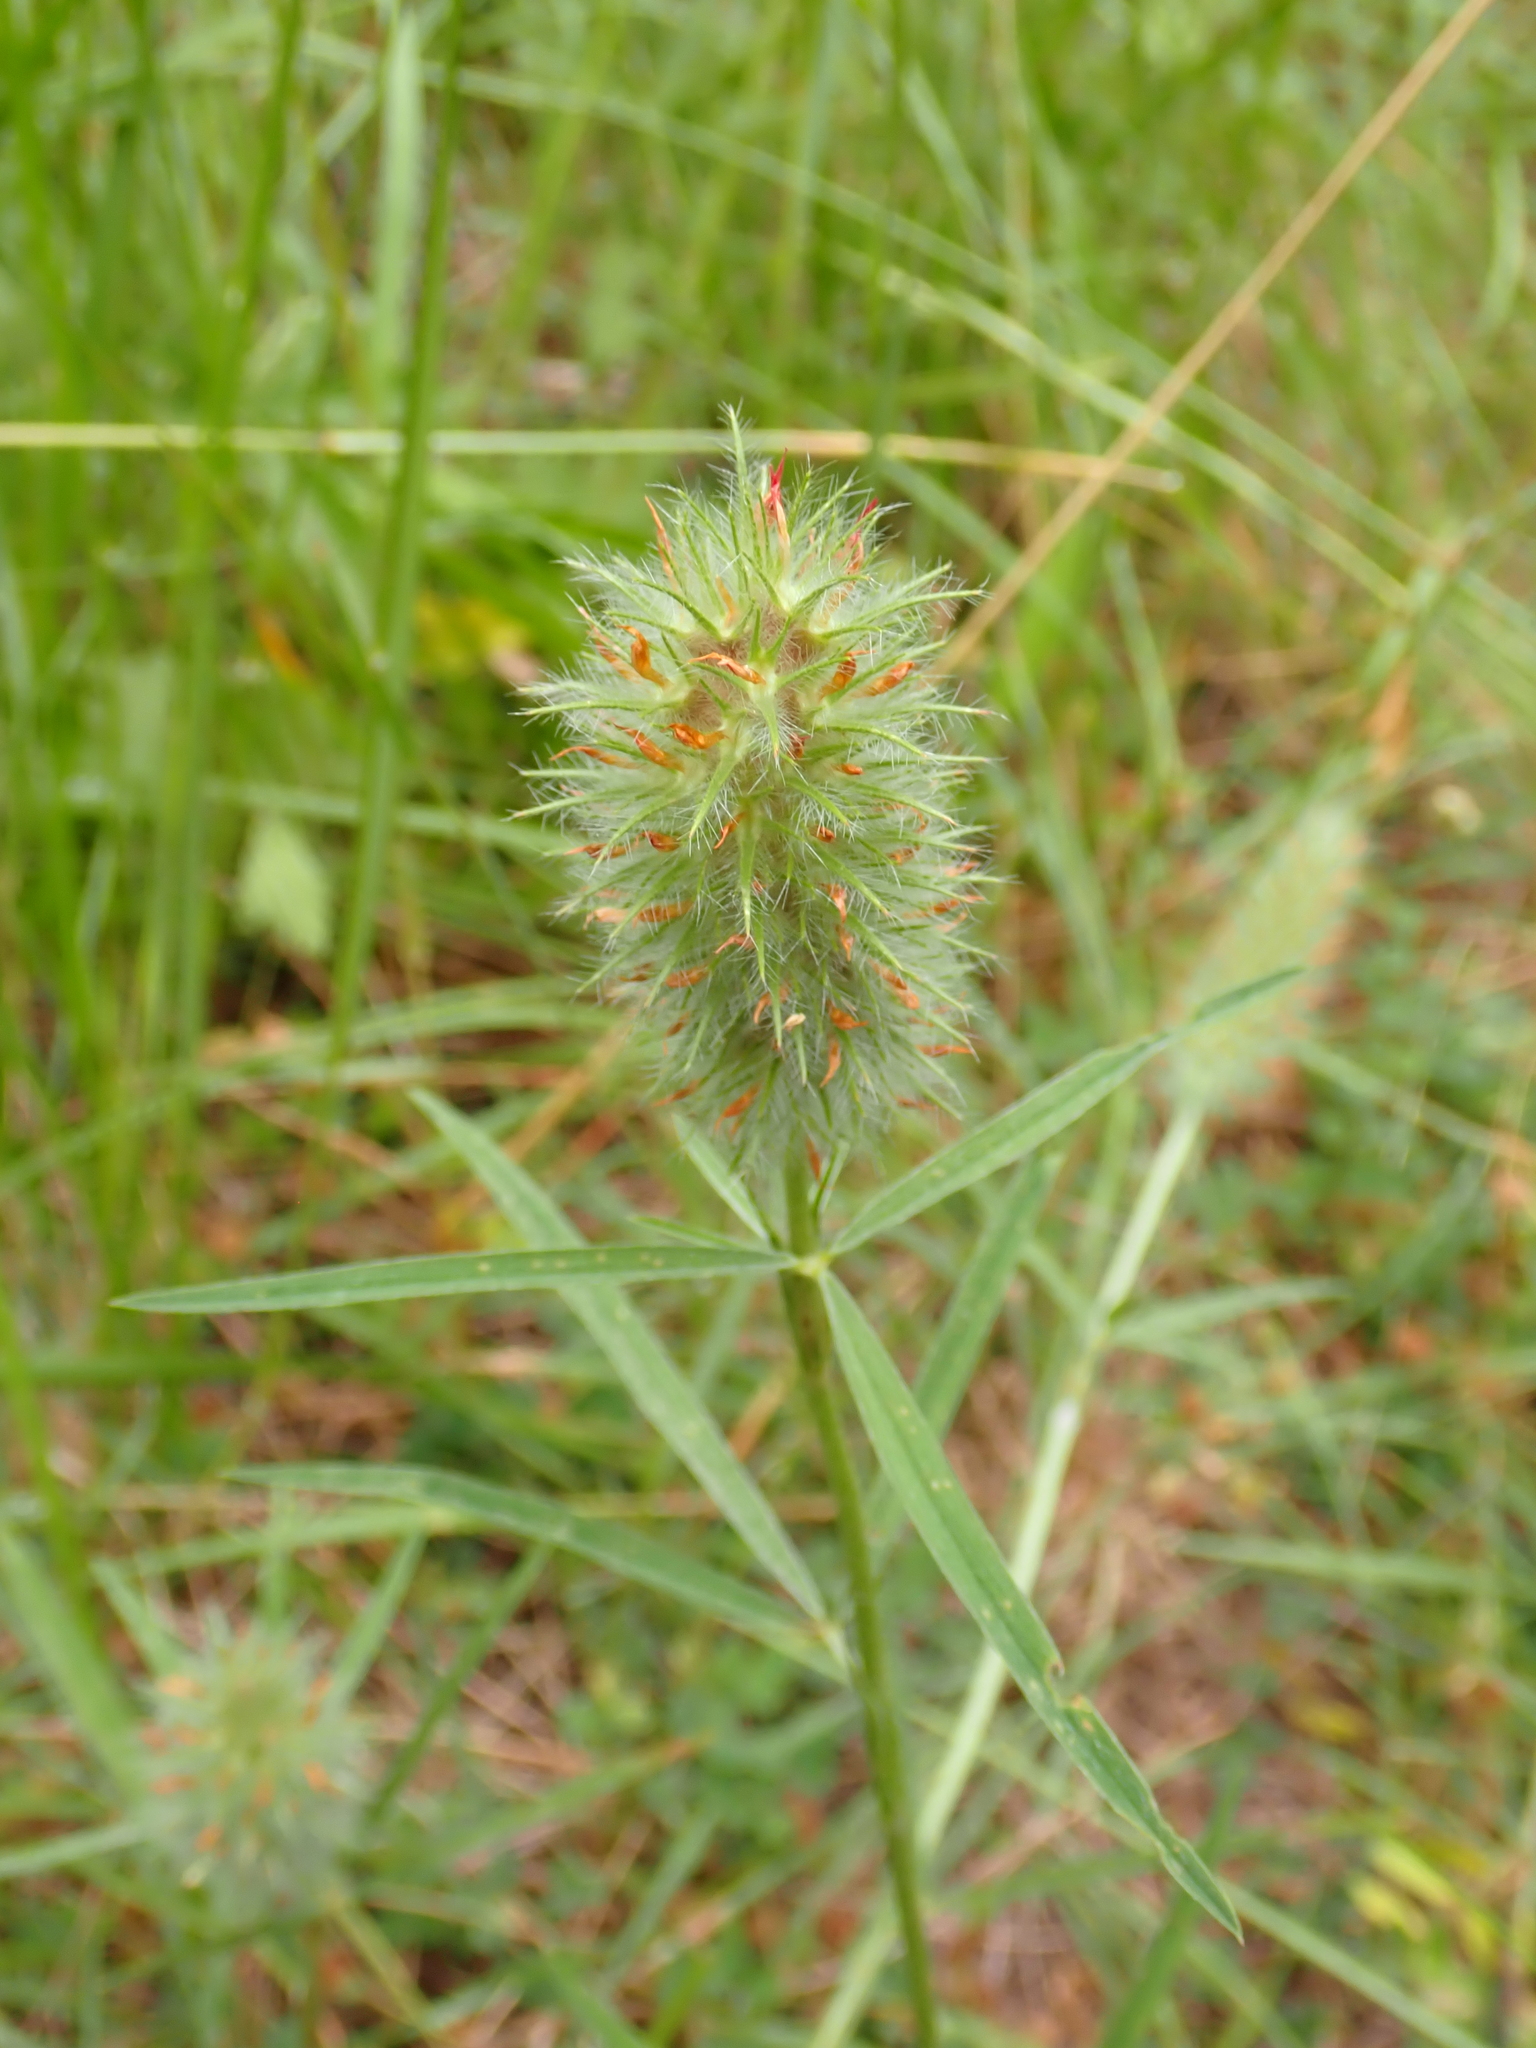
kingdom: Plantae
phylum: Tracheophyta
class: Magnoliopsida
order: Fabales
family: Fabaceae
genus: Trifolium
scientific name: Trifolium angustifolium
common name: Narrow clover
